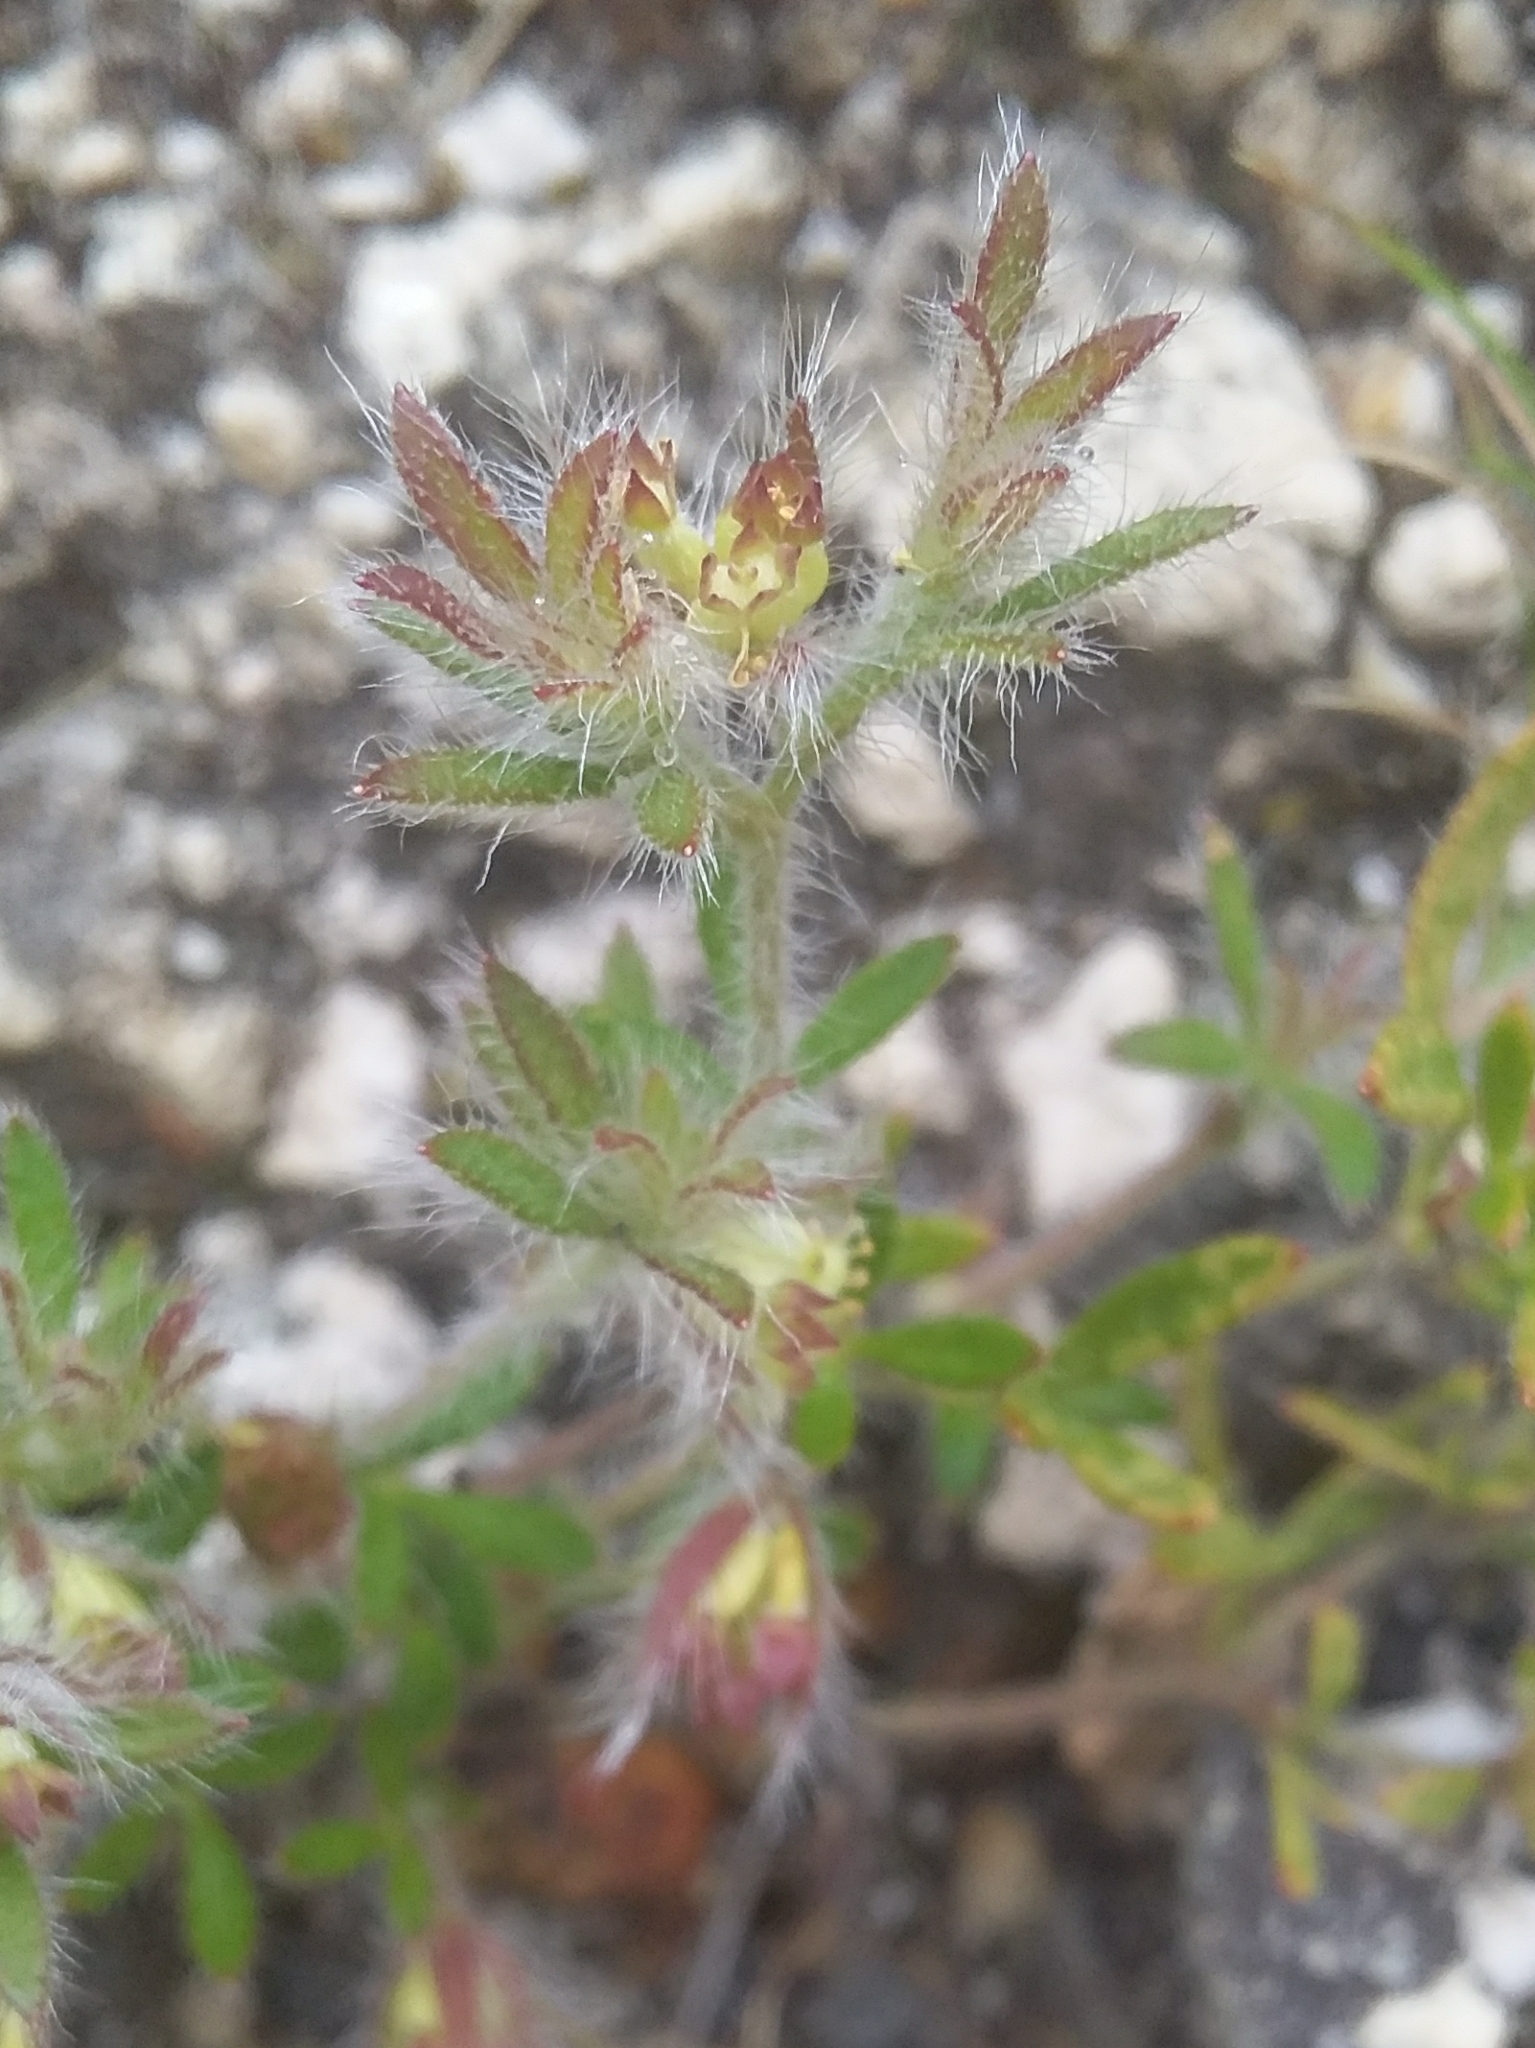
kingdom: Plantae
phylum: Tracheophyta
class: Magnoliopsida
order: Apiales
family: Apiaceae
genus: Xanthosia
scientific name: Xanthosia huegelii
